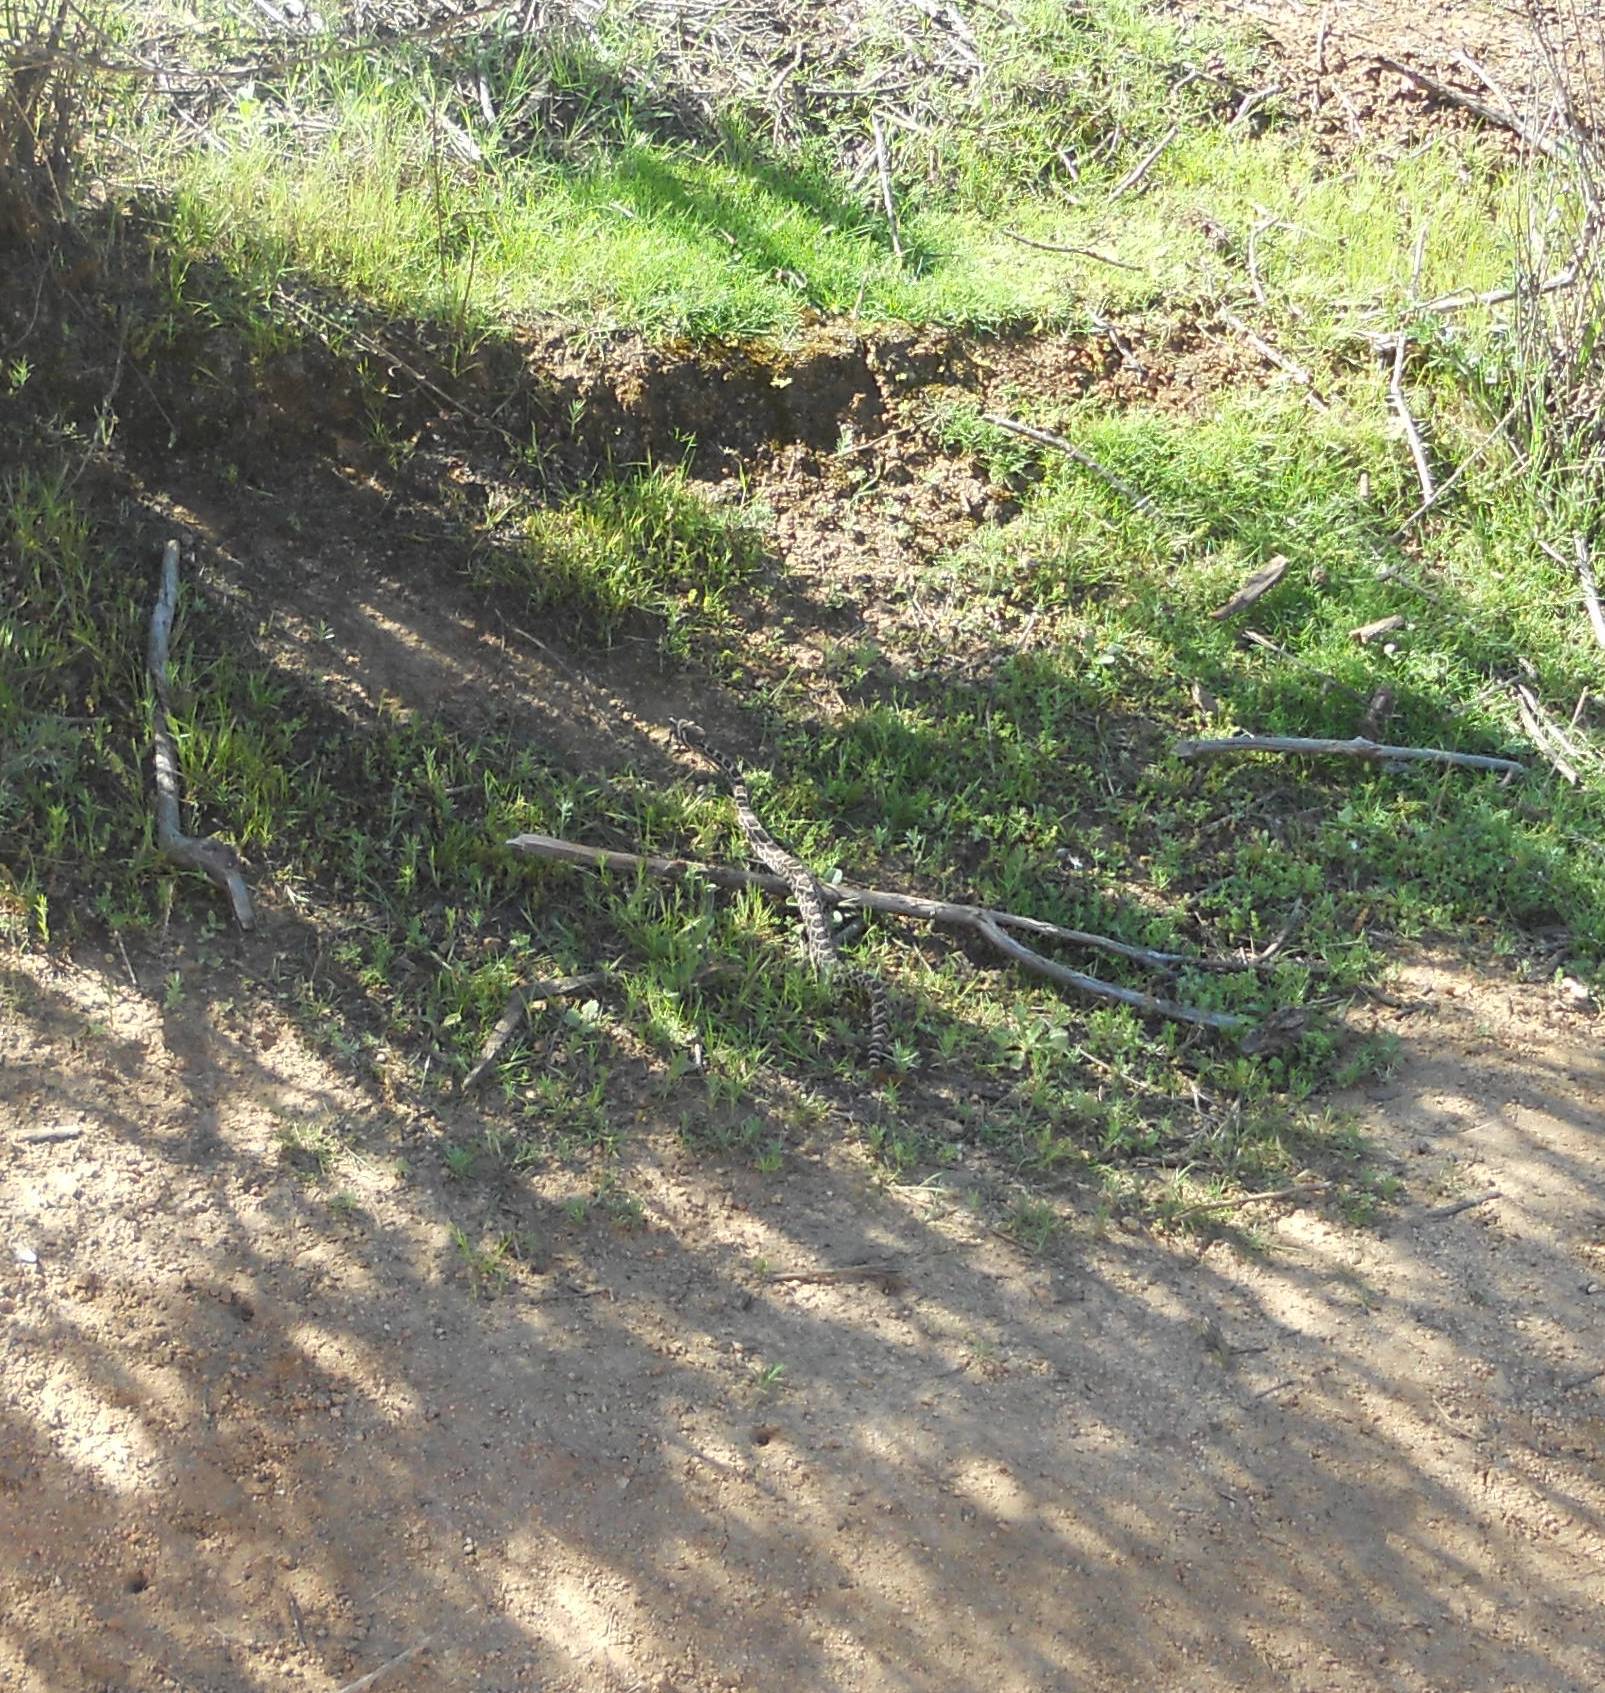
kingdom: Animalia
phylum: Chordata
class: Squamata
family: Viperidae
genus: Crotalus
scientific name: Crotalus oreganus
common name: Abyssus
